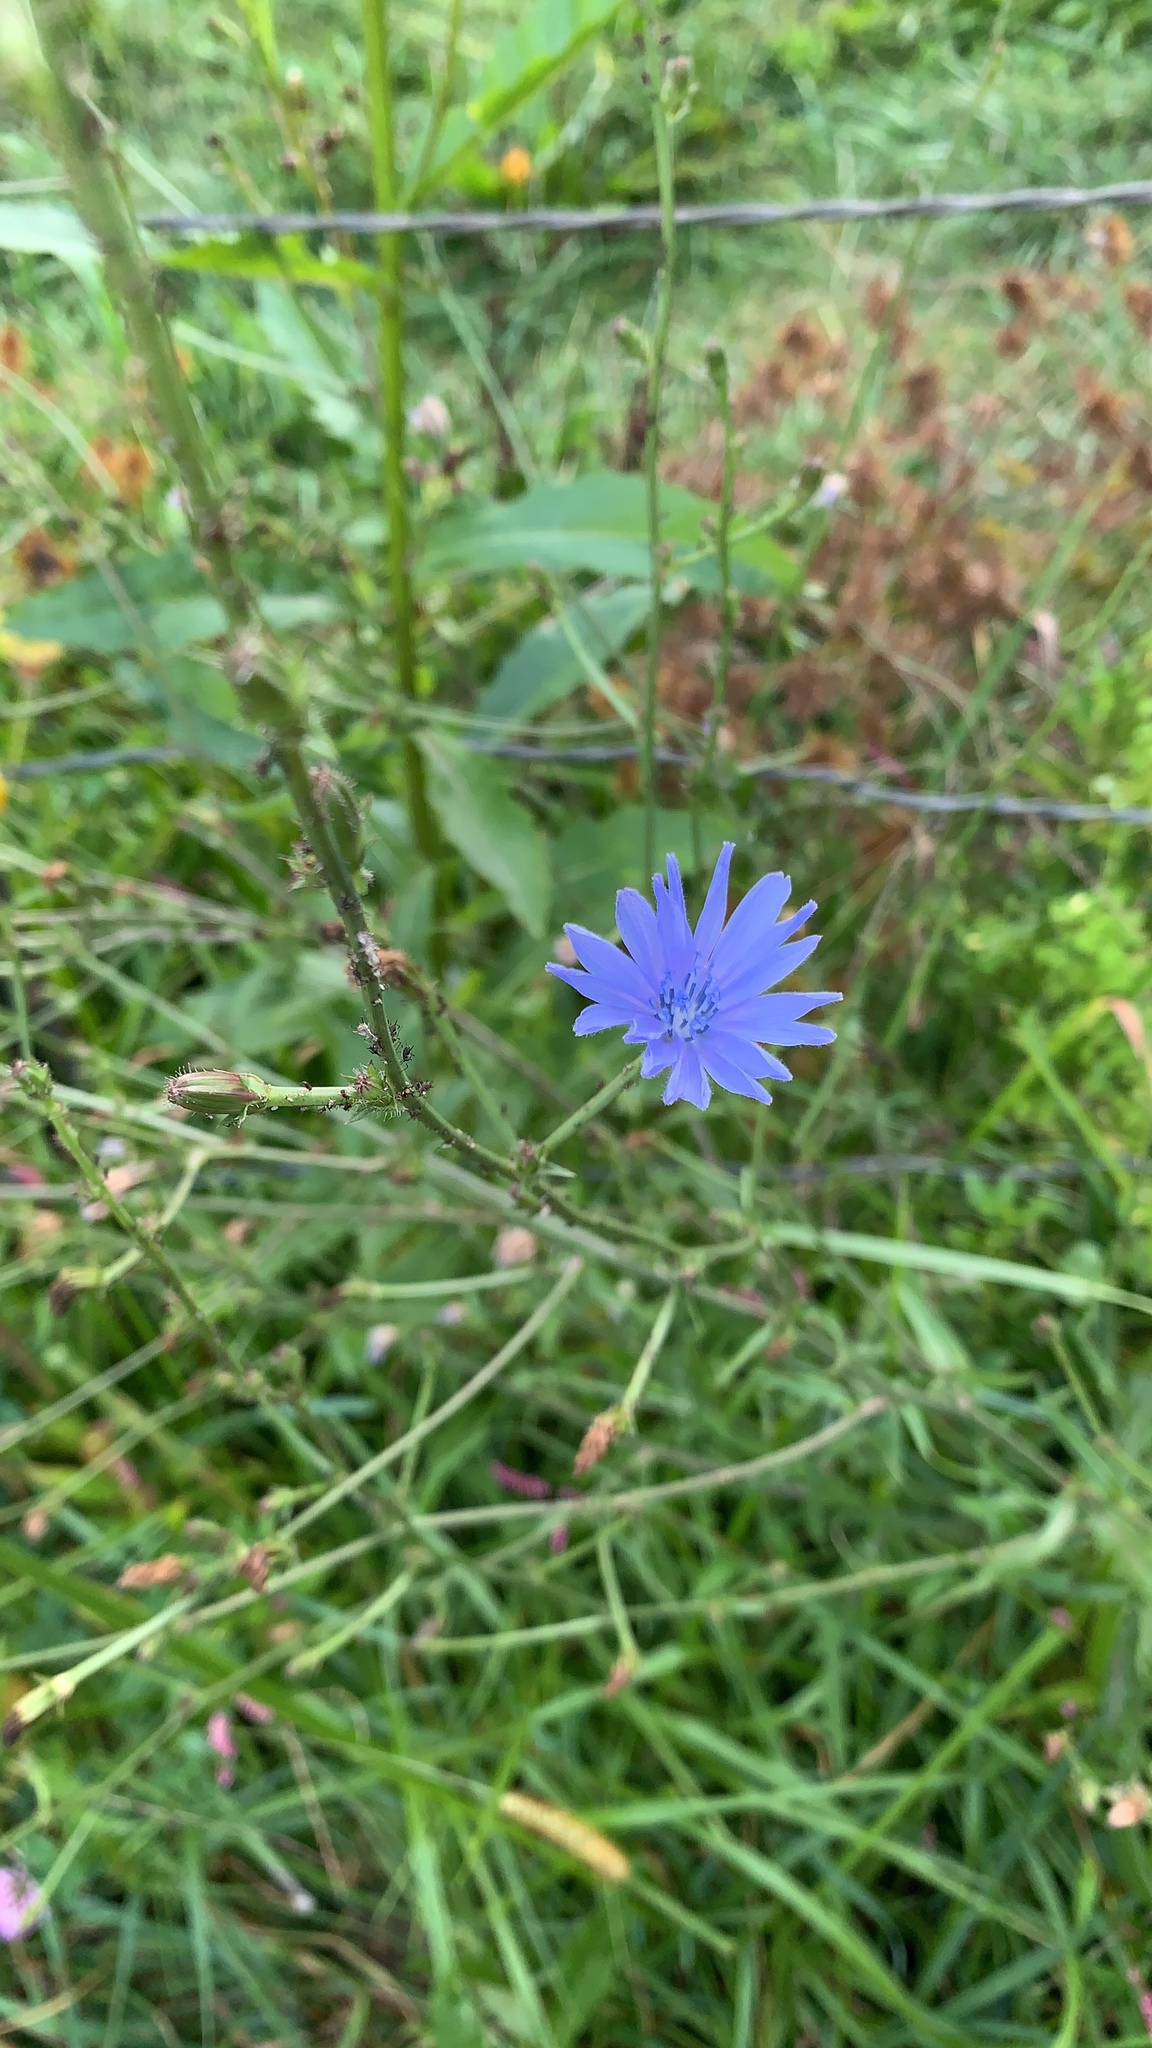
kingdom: Plantae
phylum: Tracheophyta
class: Magnoliopsida
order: Asterales
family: Asteraceae
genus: Cichorium
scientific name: Cichorium intybus
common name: Chicory
